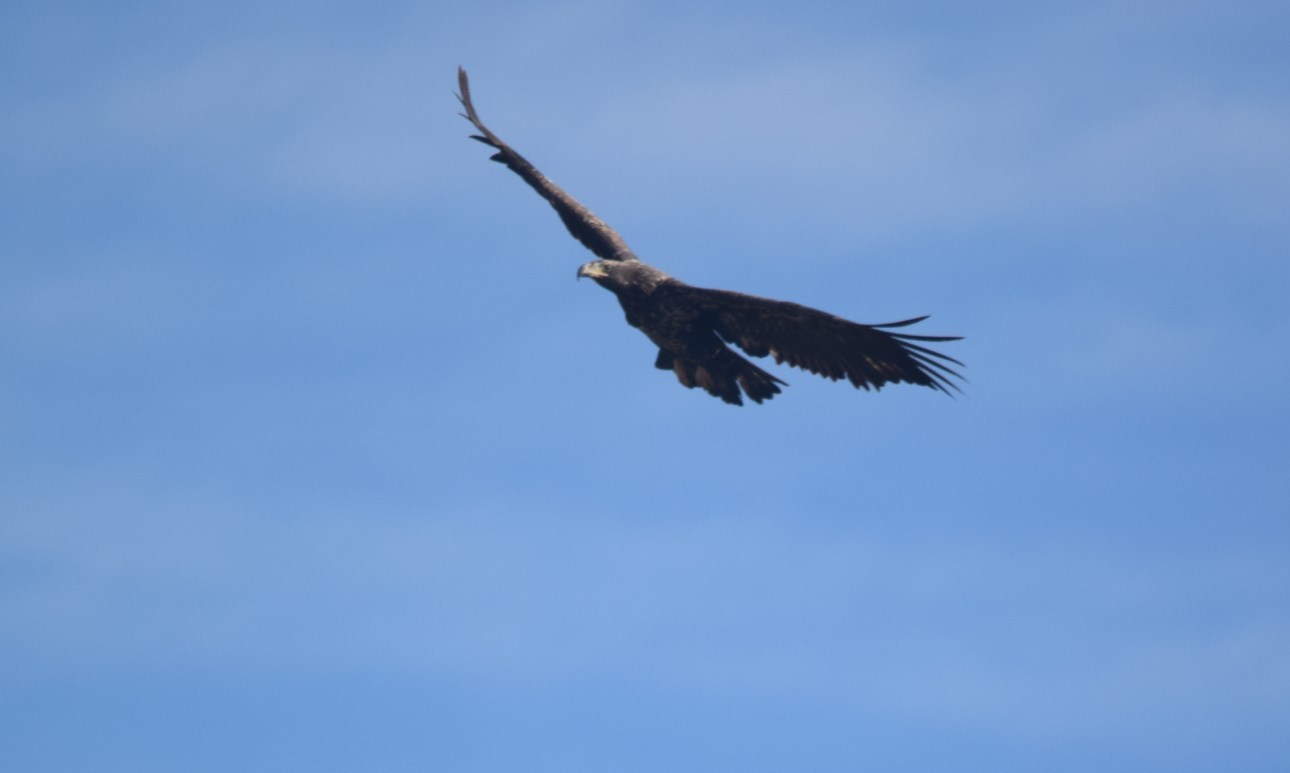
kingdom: Animalia
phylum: Chordata
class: Aves
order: Accipitriformes
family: Accipitridae
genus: Haliaeetus
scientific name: Haliaeetus leucocephalus
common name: Bald eagle
